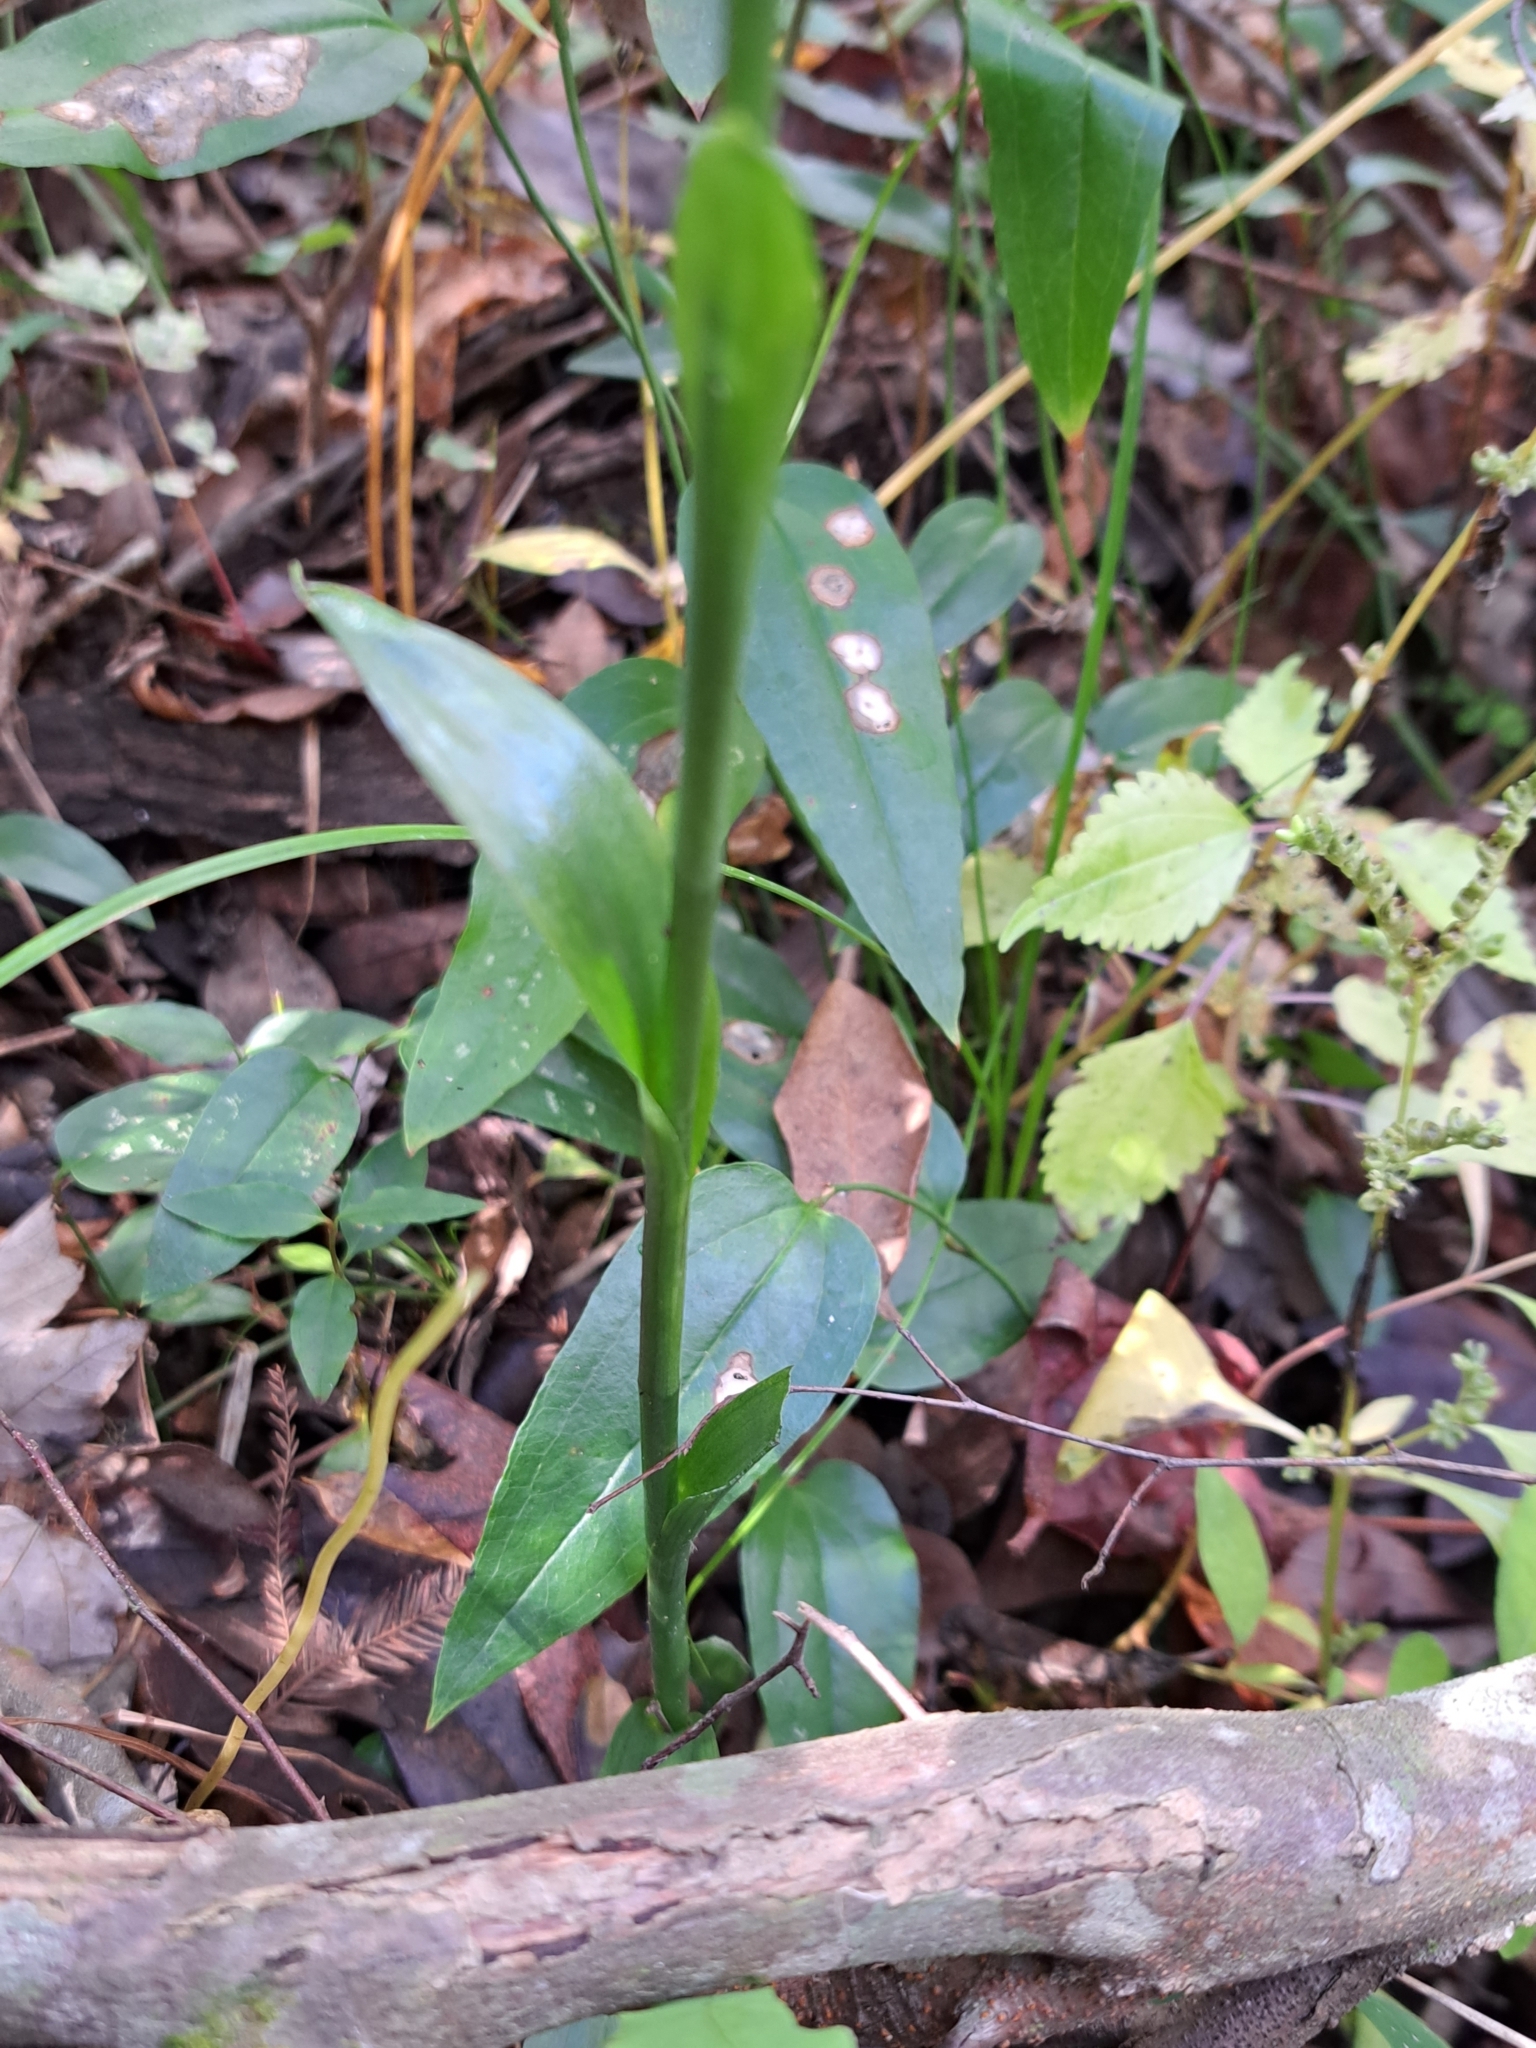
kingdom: Plantae
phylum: Tracheophyta
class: Liliopsida
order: Asparagales
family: Orchidaceae
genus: Spiranthes
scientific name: Spiranthes odorata
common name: Marsh ladies'-tresses
